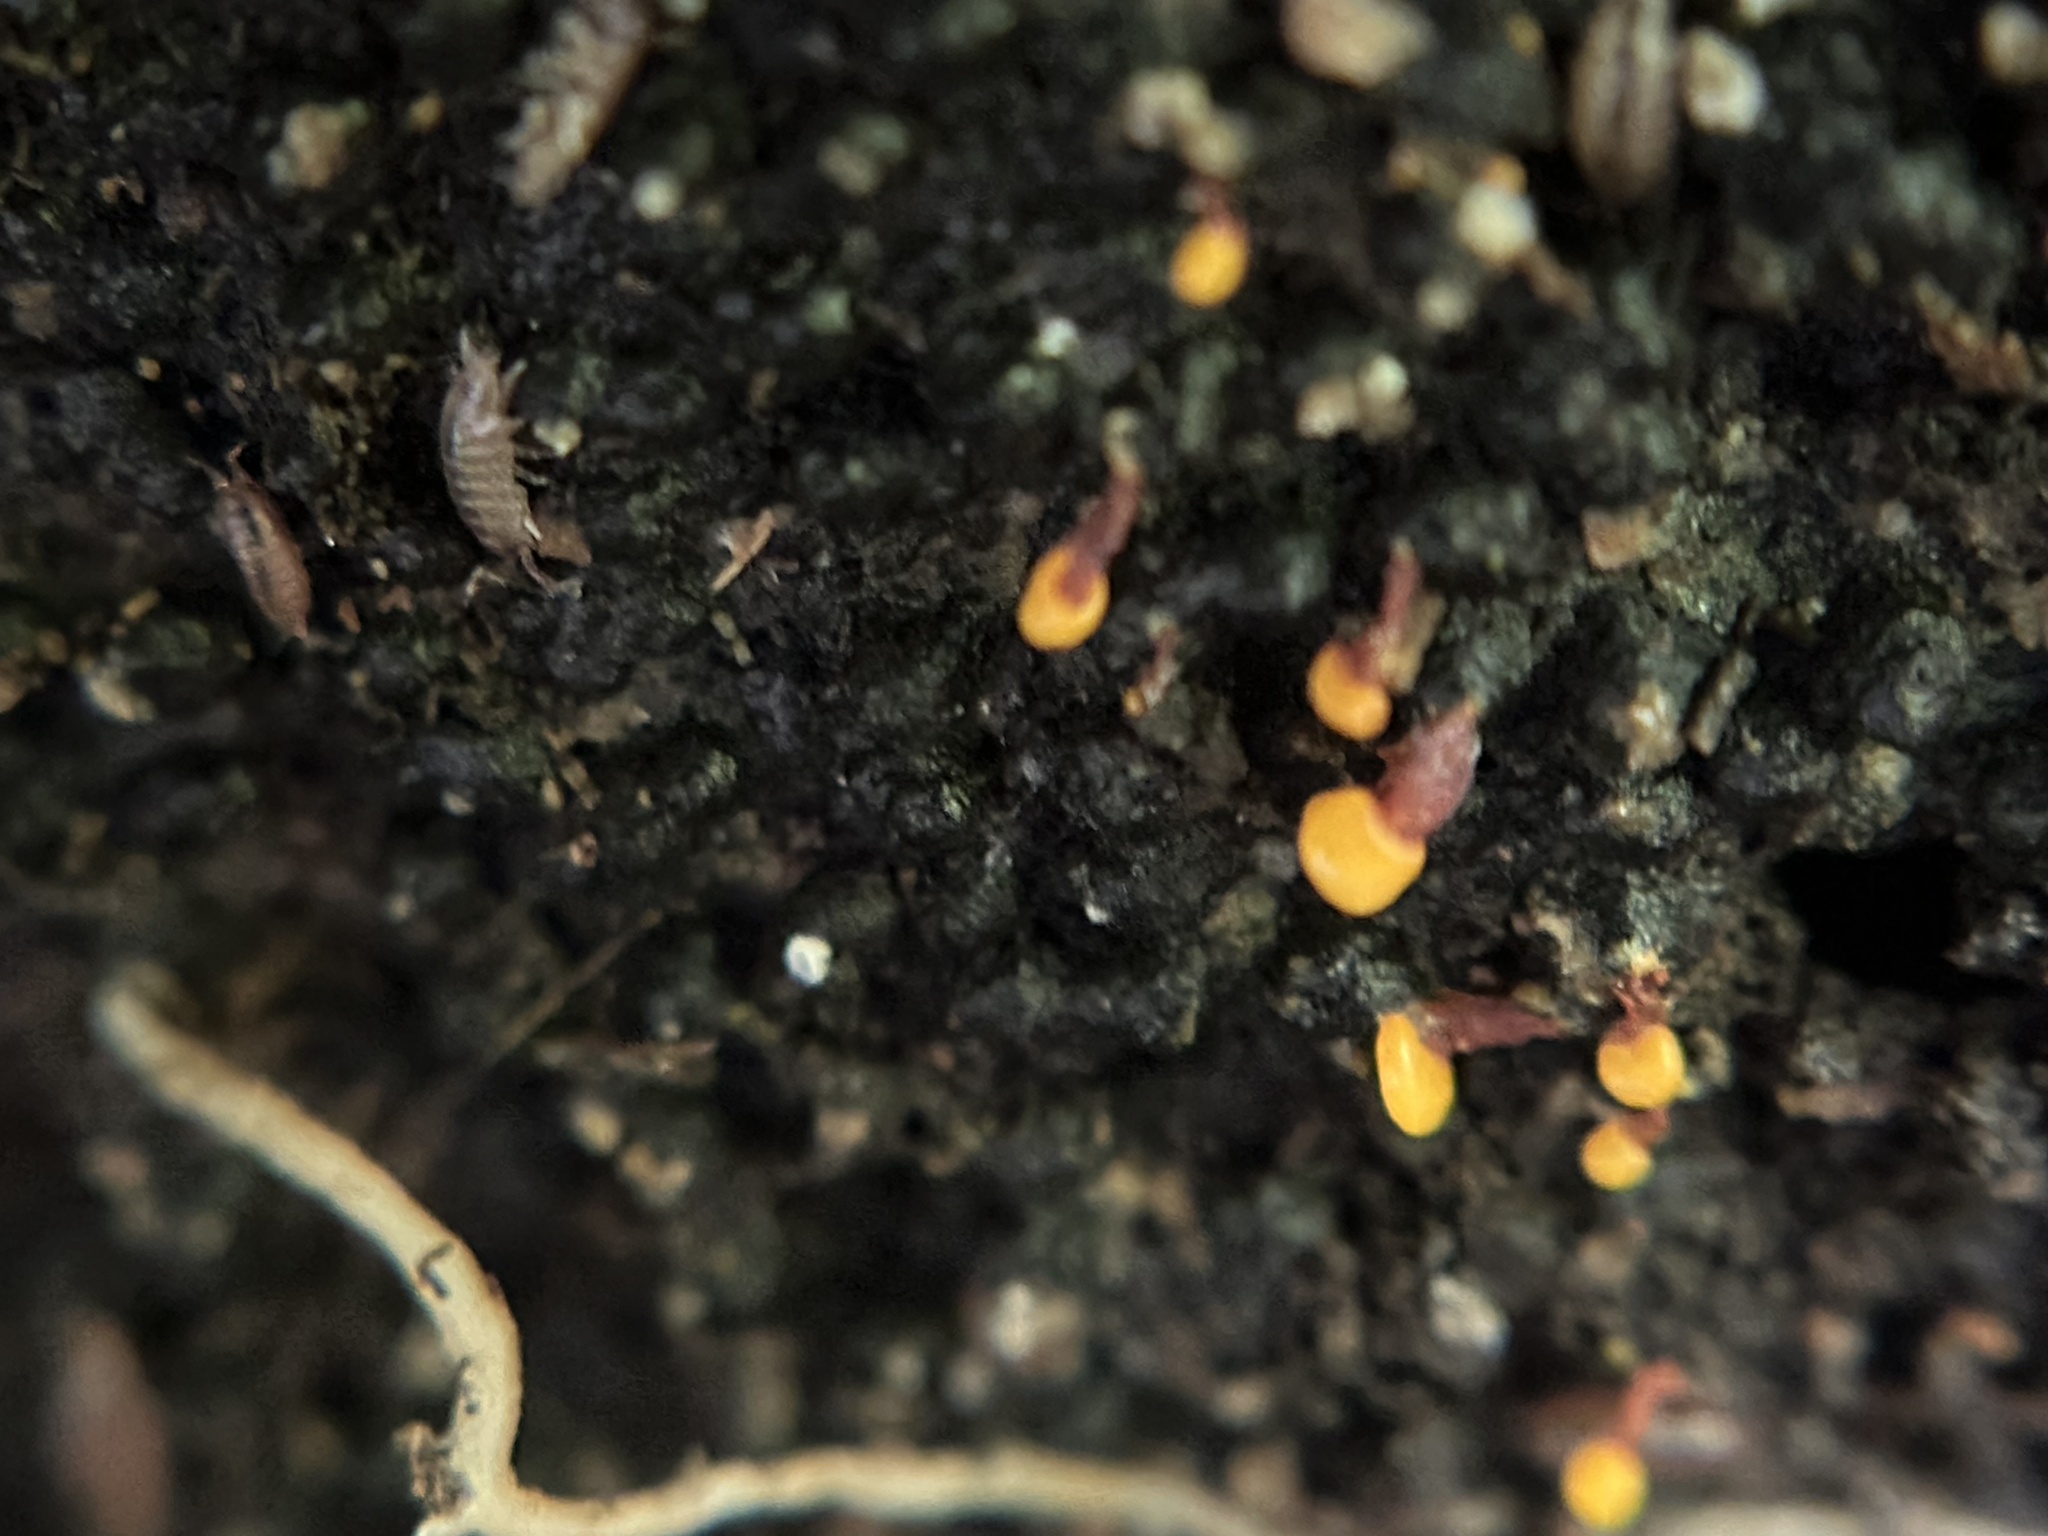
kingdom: Protozoa
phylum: Mycetozoa
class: Myxomycetes
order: Physarales
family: Physaraceae
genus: Physarella
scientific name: Physarella oblonga
